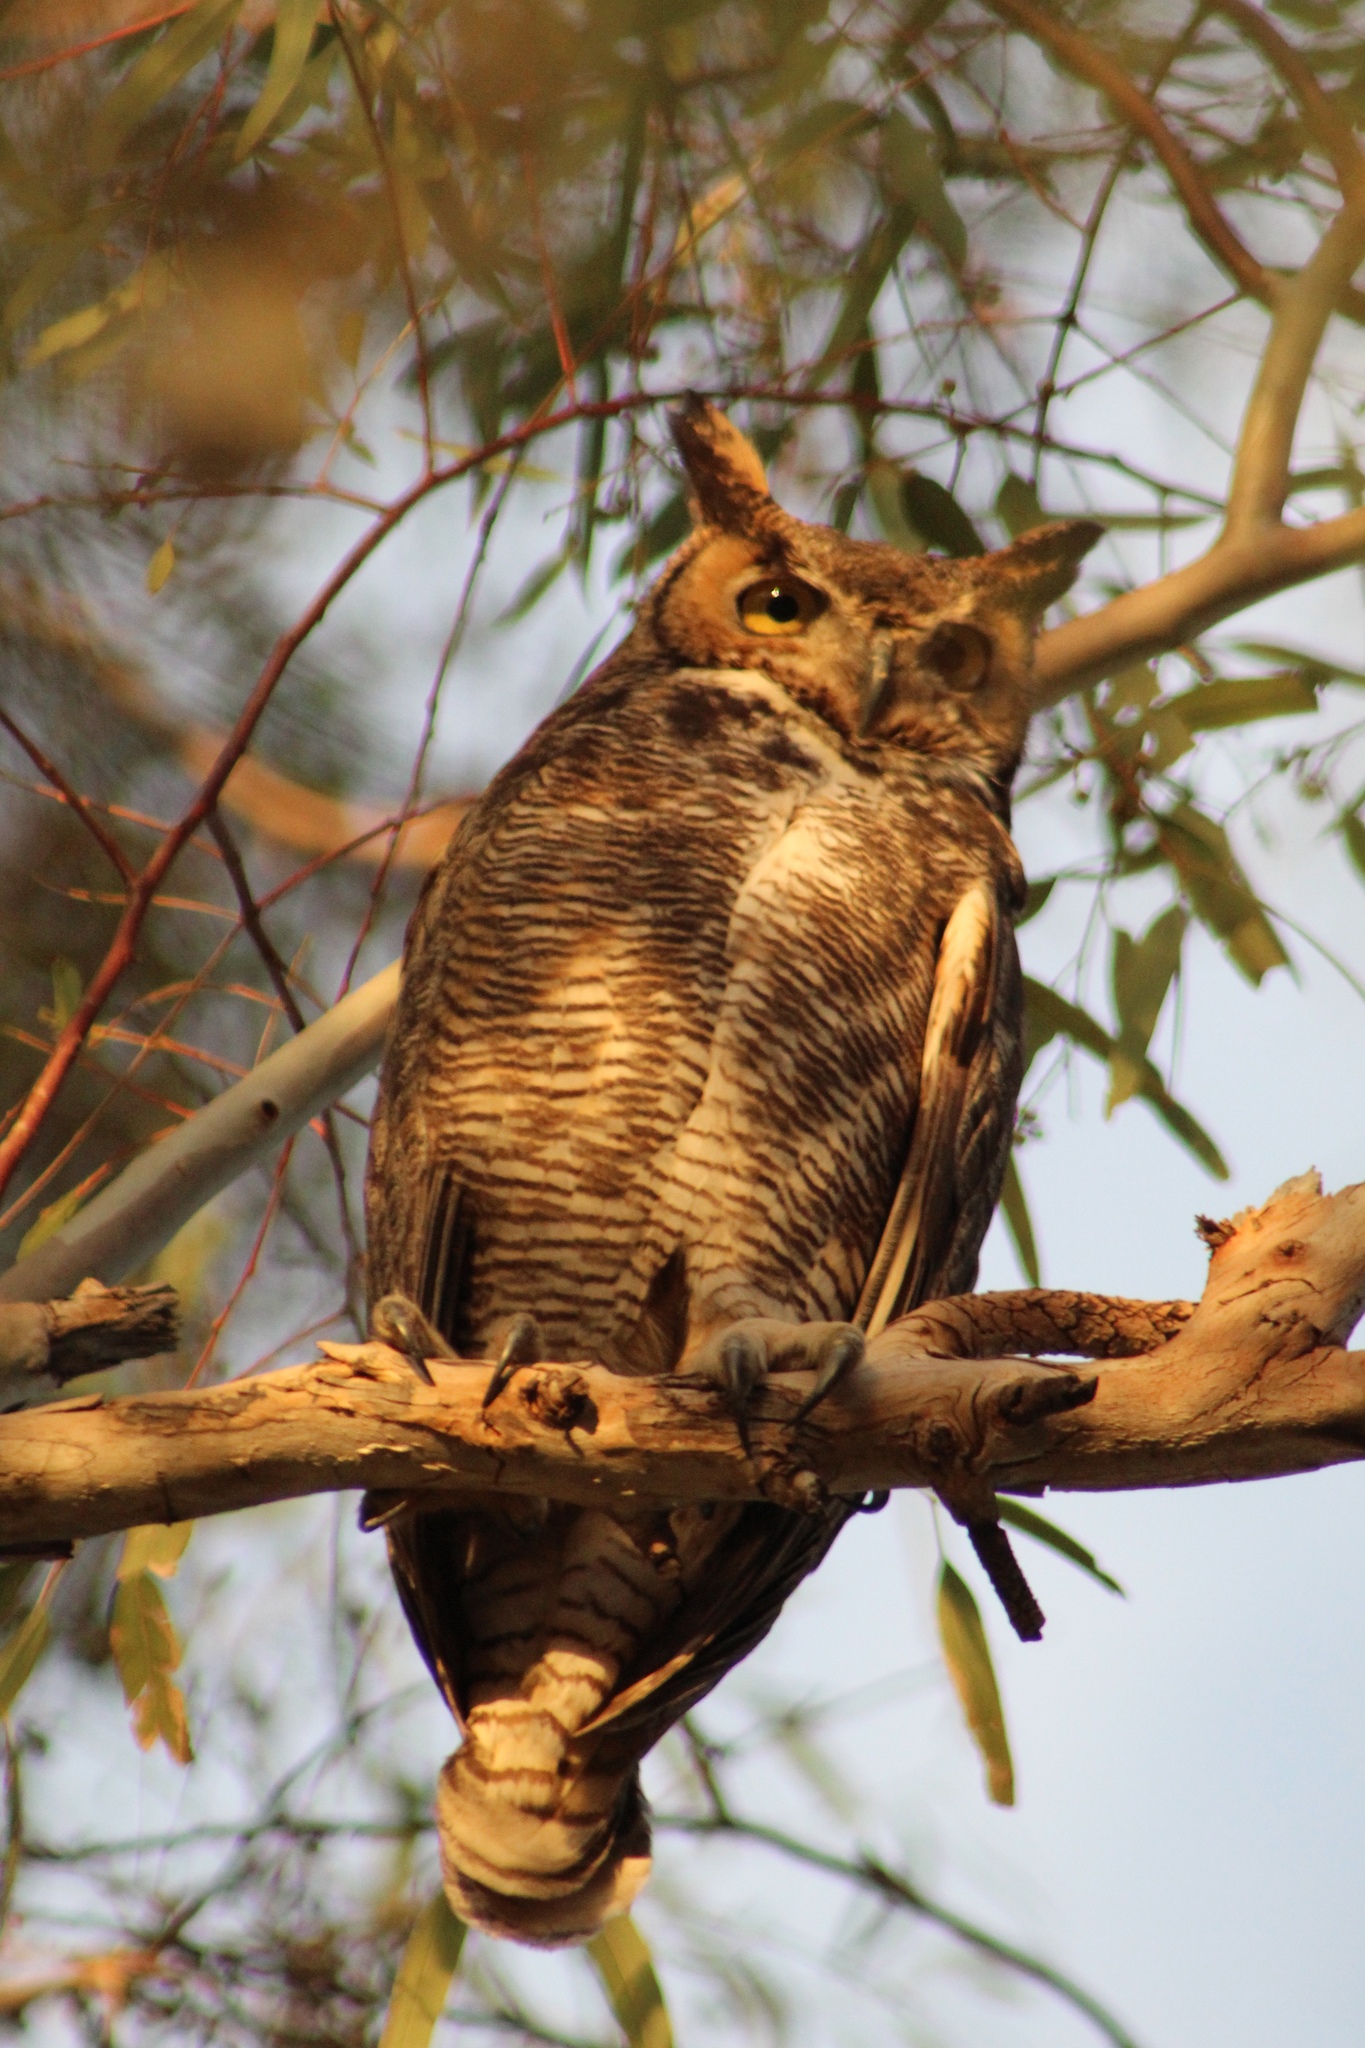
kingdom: Animalia
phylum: Chordata
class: Aves
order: Strigiformes
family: Strigidae
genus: Bubo
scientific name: Bubo virginianus
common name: Great horned owl
